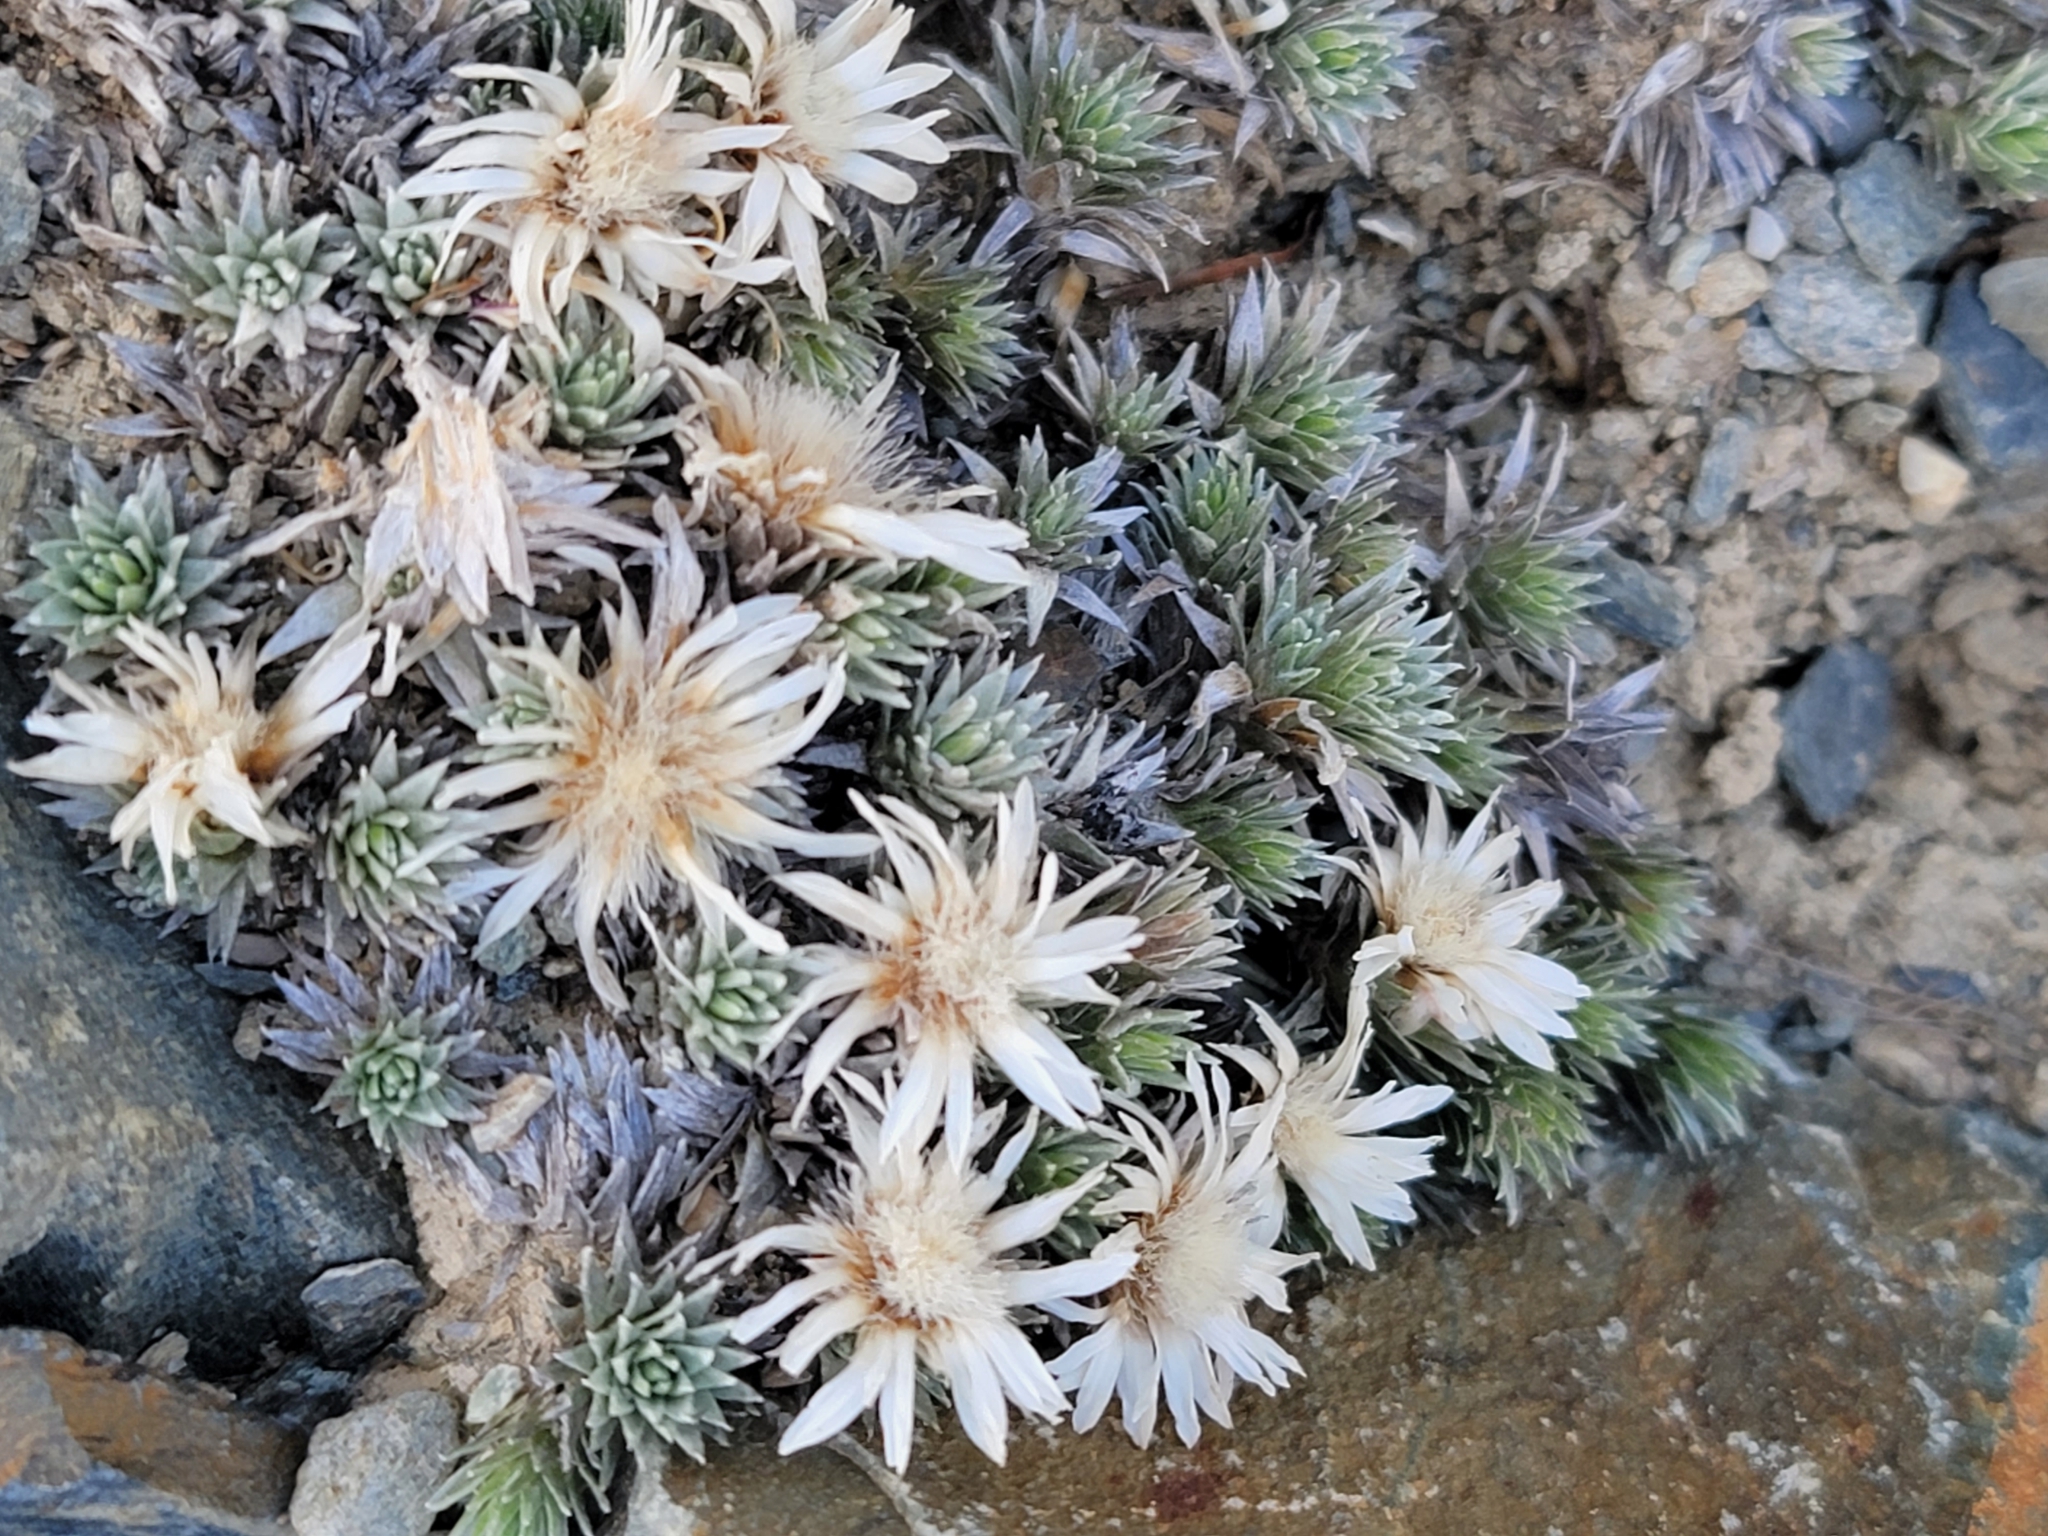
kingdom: Plantae
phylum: Tracheophyta
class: Magnoliopsida
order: Asterales
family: Asteraceae
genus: Raoulia
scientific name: Raoulia grandiflora
